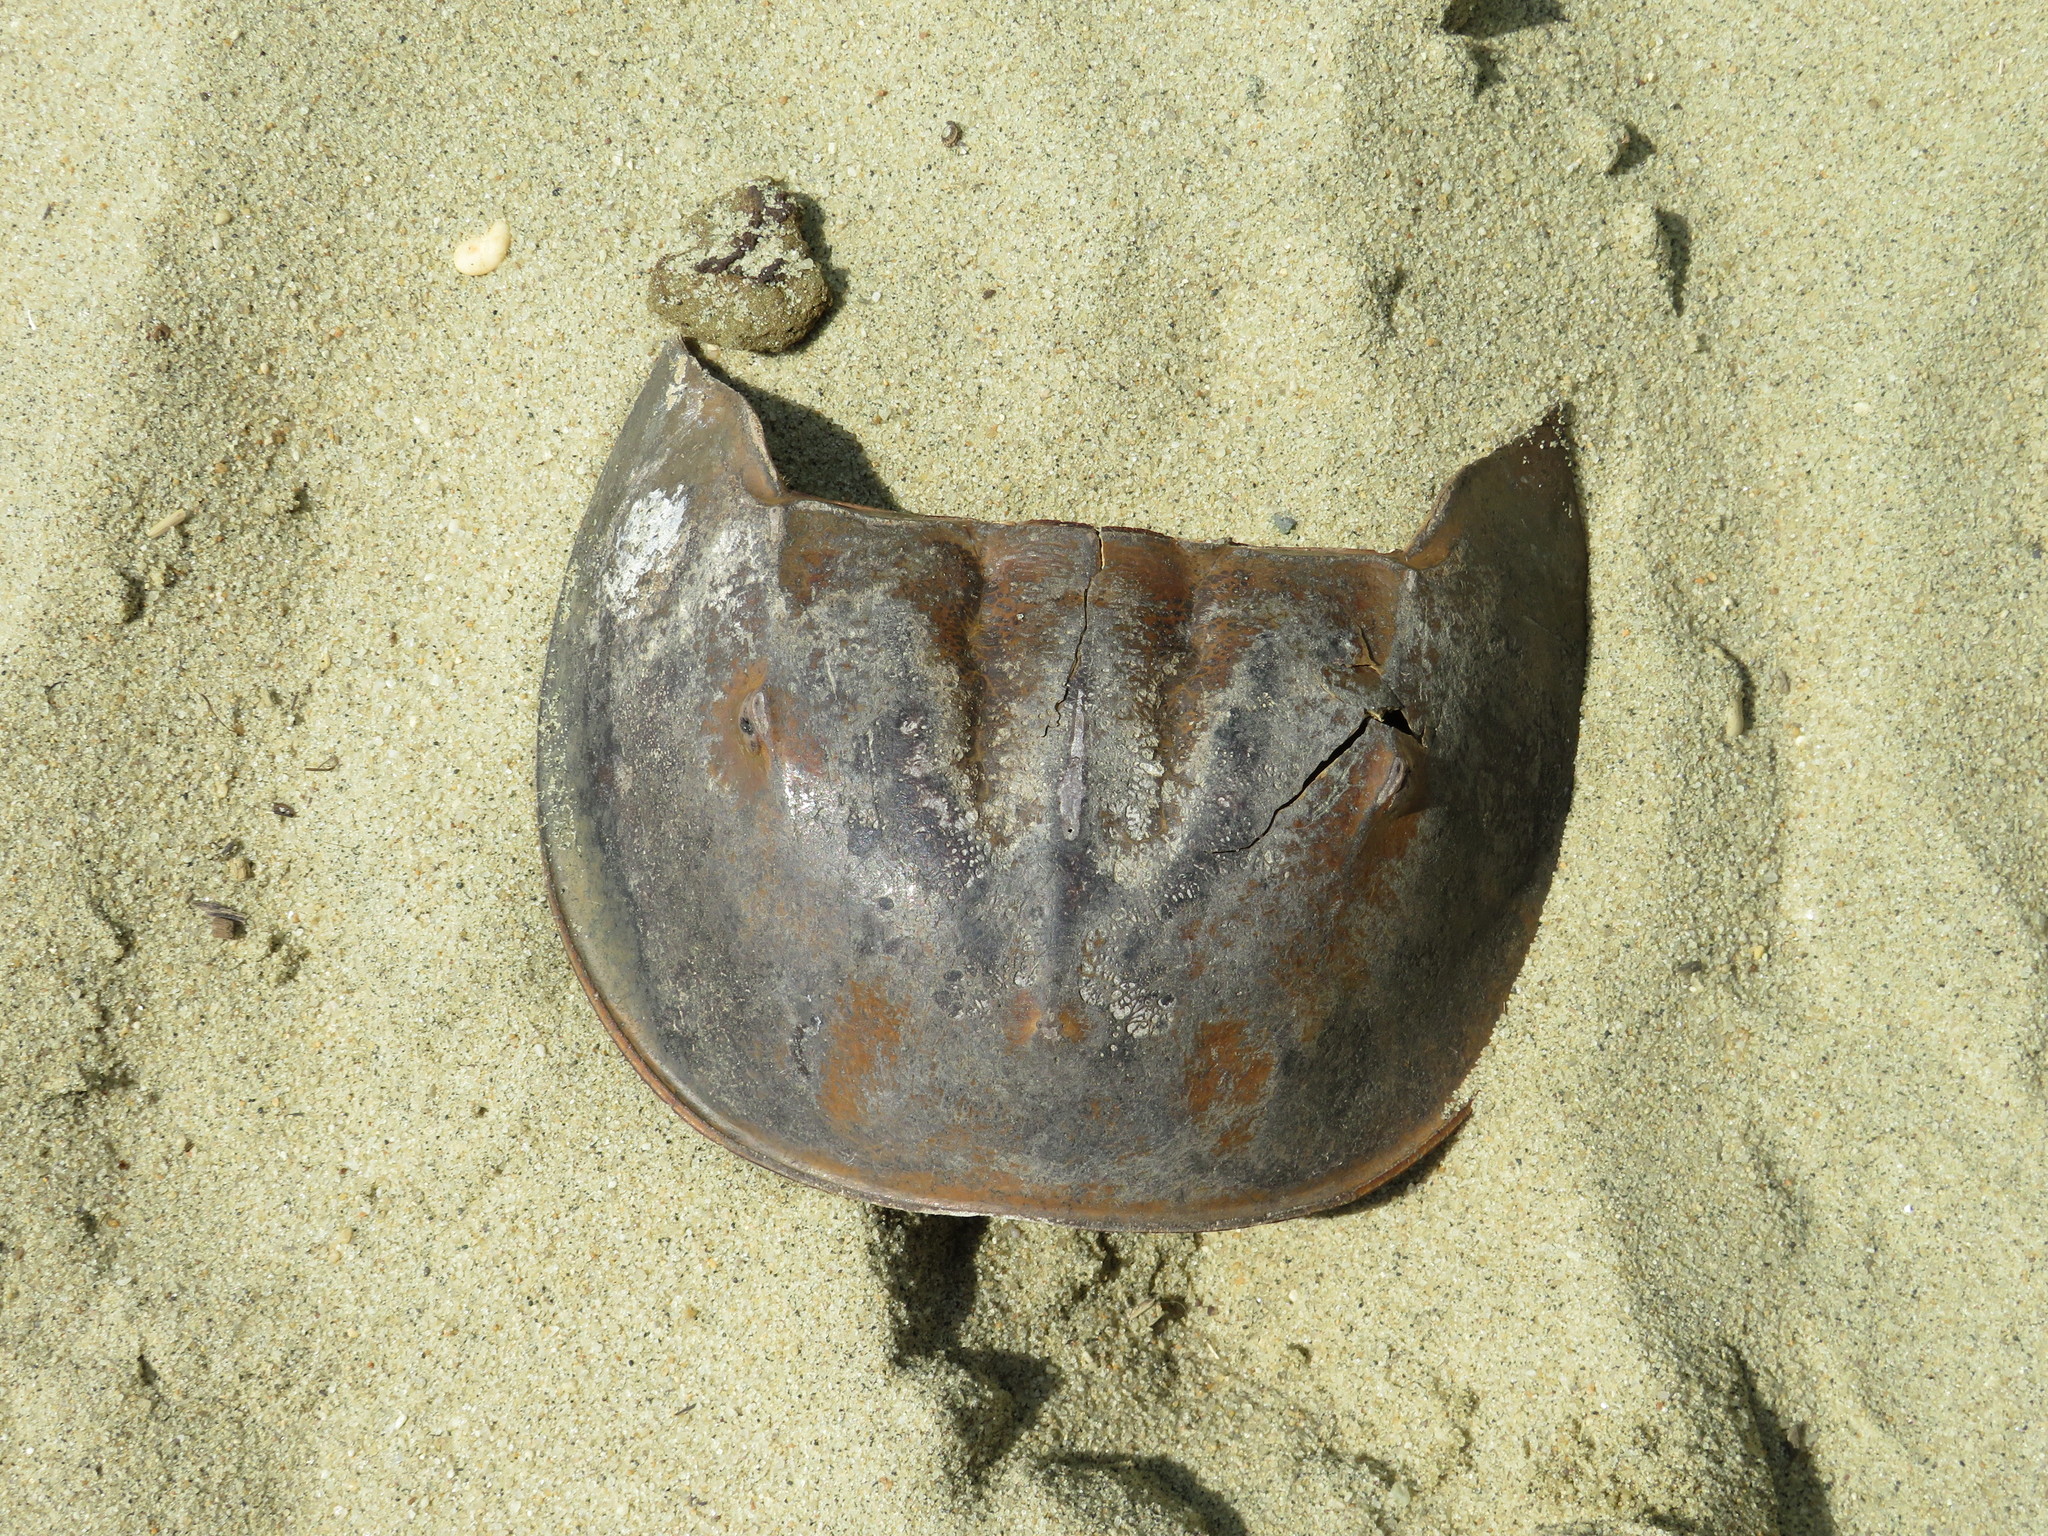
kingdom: Animalia
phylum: Arthropoda
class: Merostomata
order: Xiphosurida
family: Limulidae
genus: Limulus
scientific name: Limulus polyphemus
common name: Horseshoe crab
